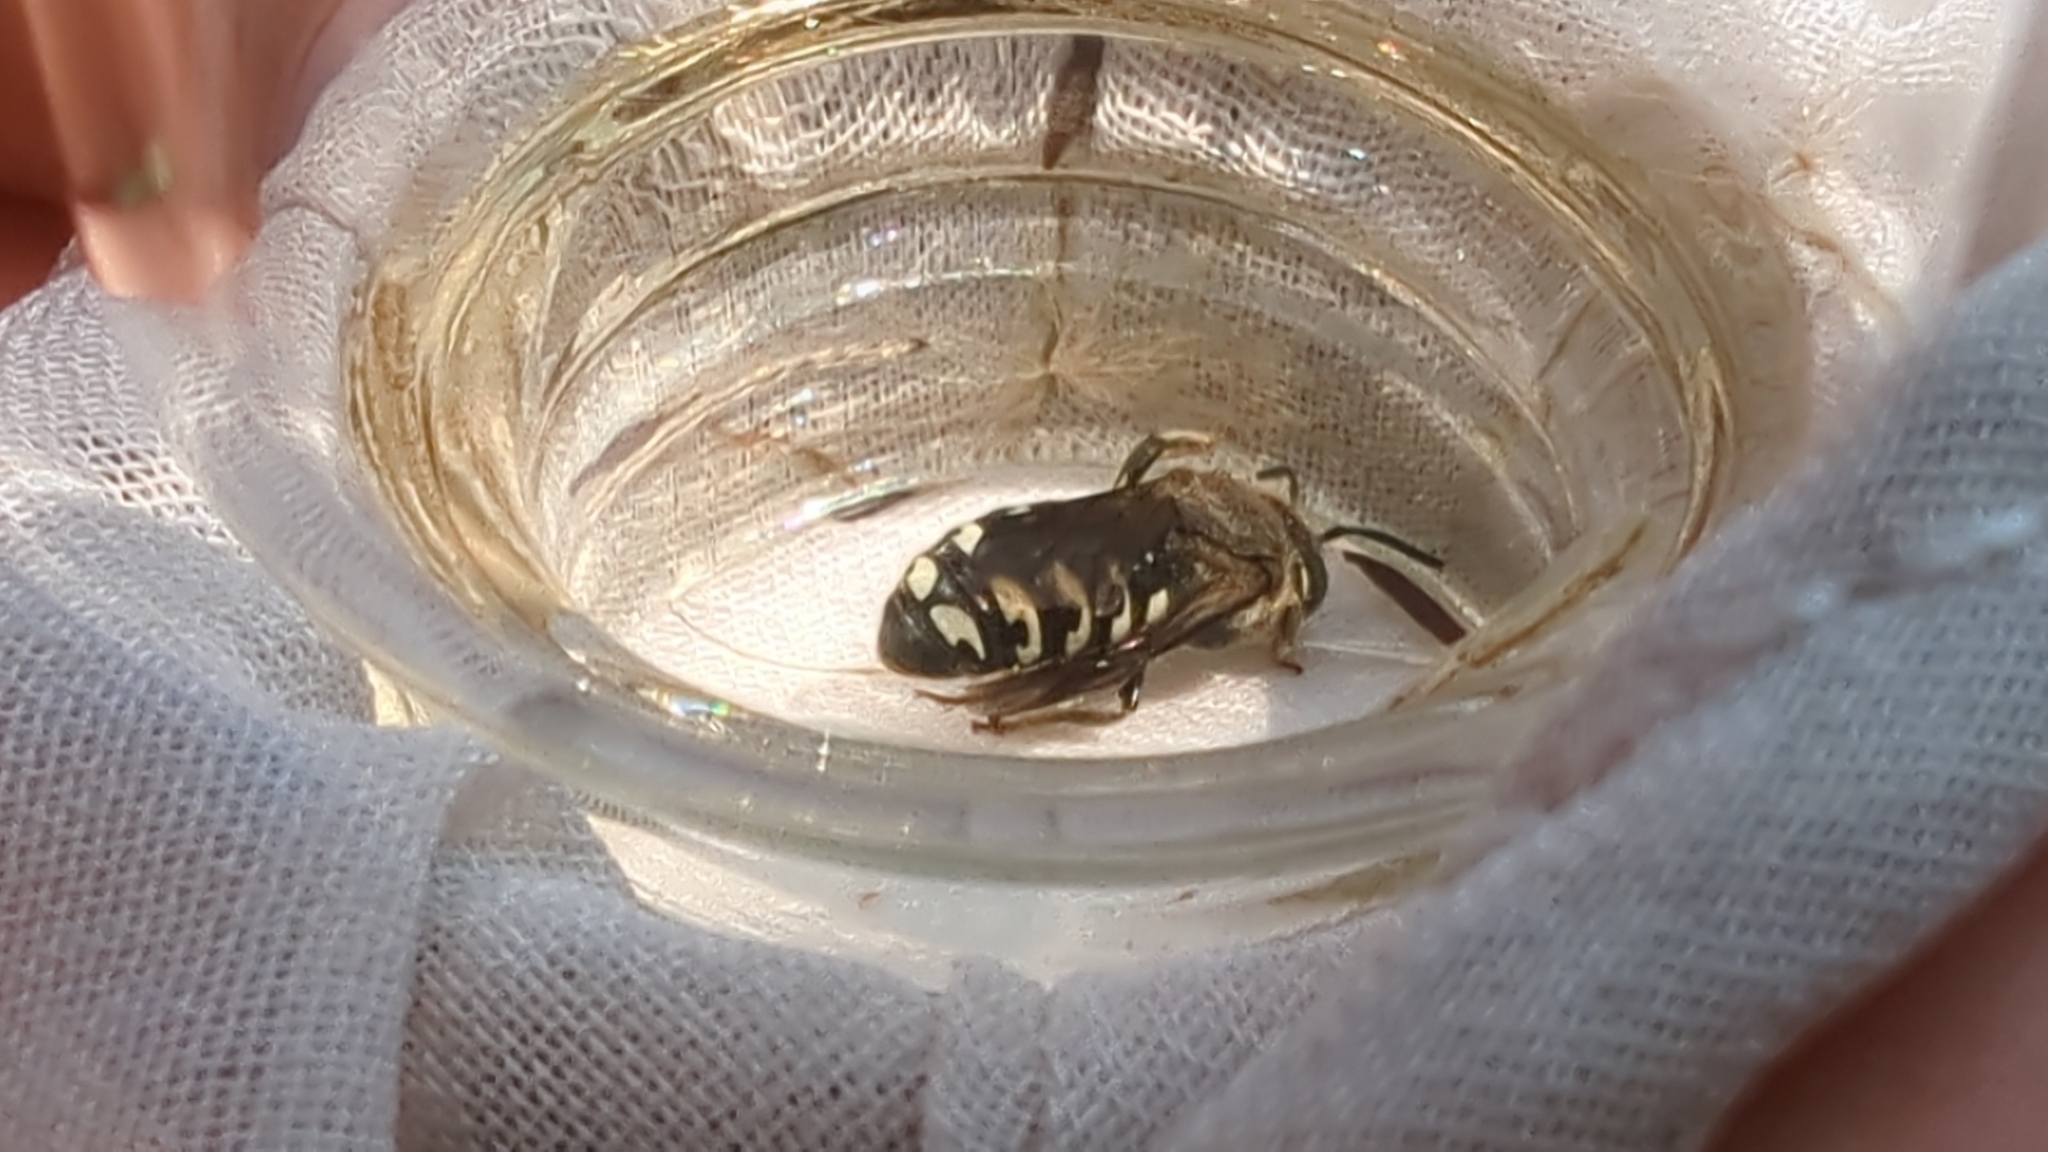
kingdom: Animalia
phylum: Arthropoda
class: Insecta
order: Hymenoptera
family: Megachilidae
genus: Dianthidium
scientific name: Dianthidium subparvum
